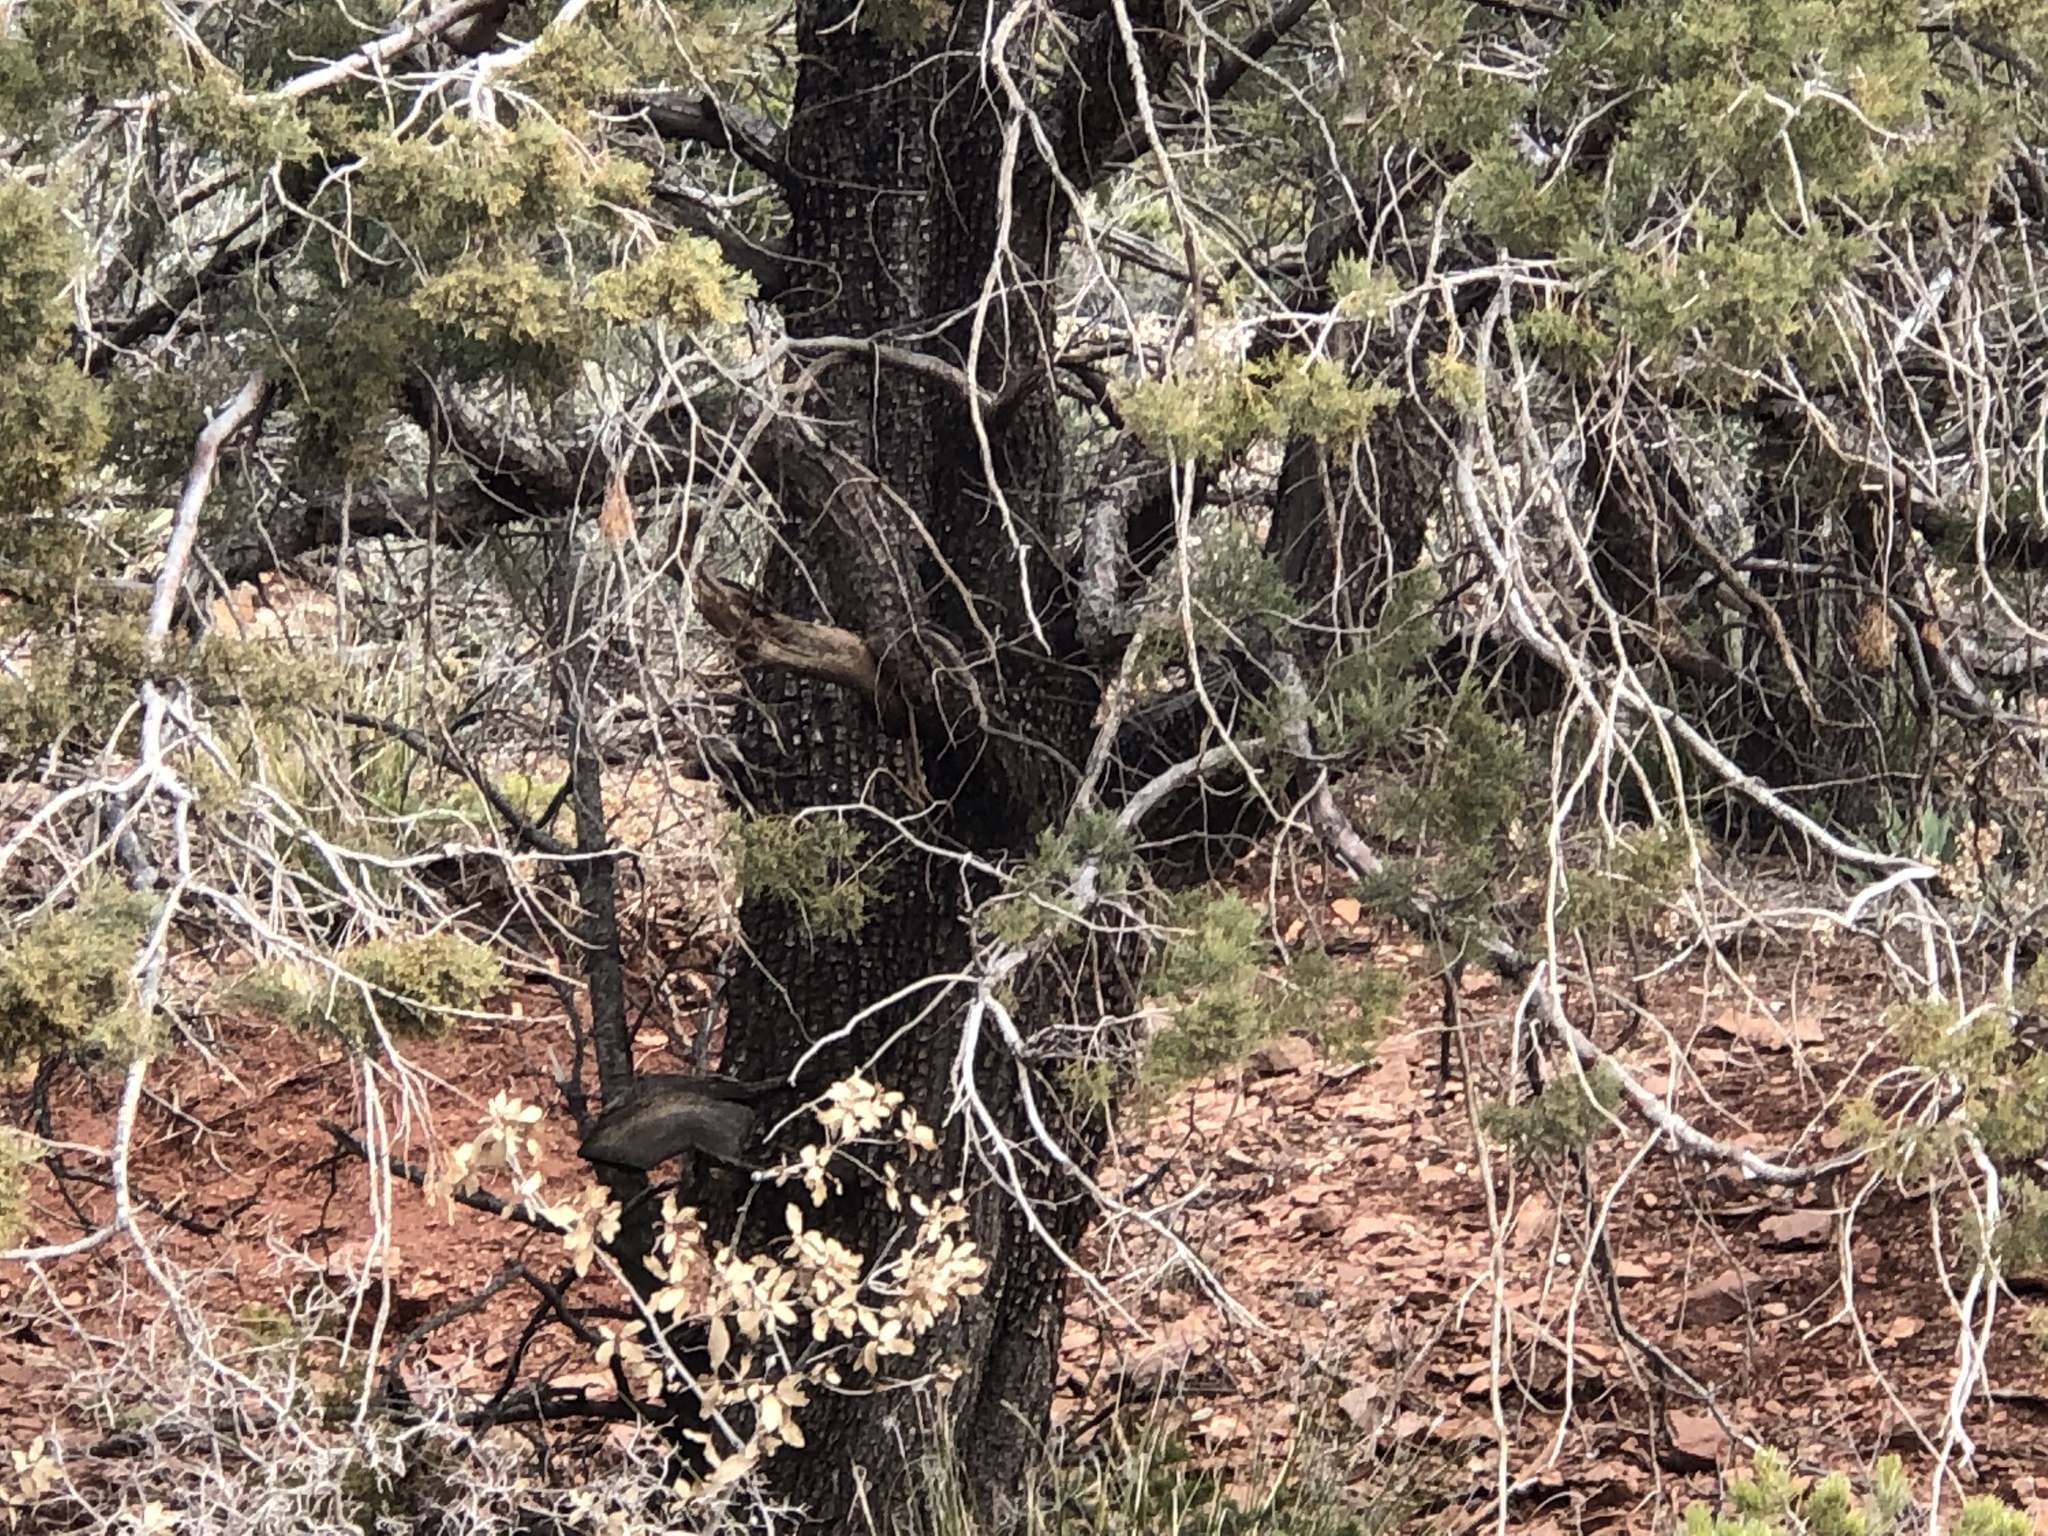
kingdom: Plantae
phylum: Tracheophyta
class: Pinopsida
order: Pinales
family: Cupressaceae
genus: Juniperus
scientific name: Juniperus deppeana
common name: Alligator juniper
